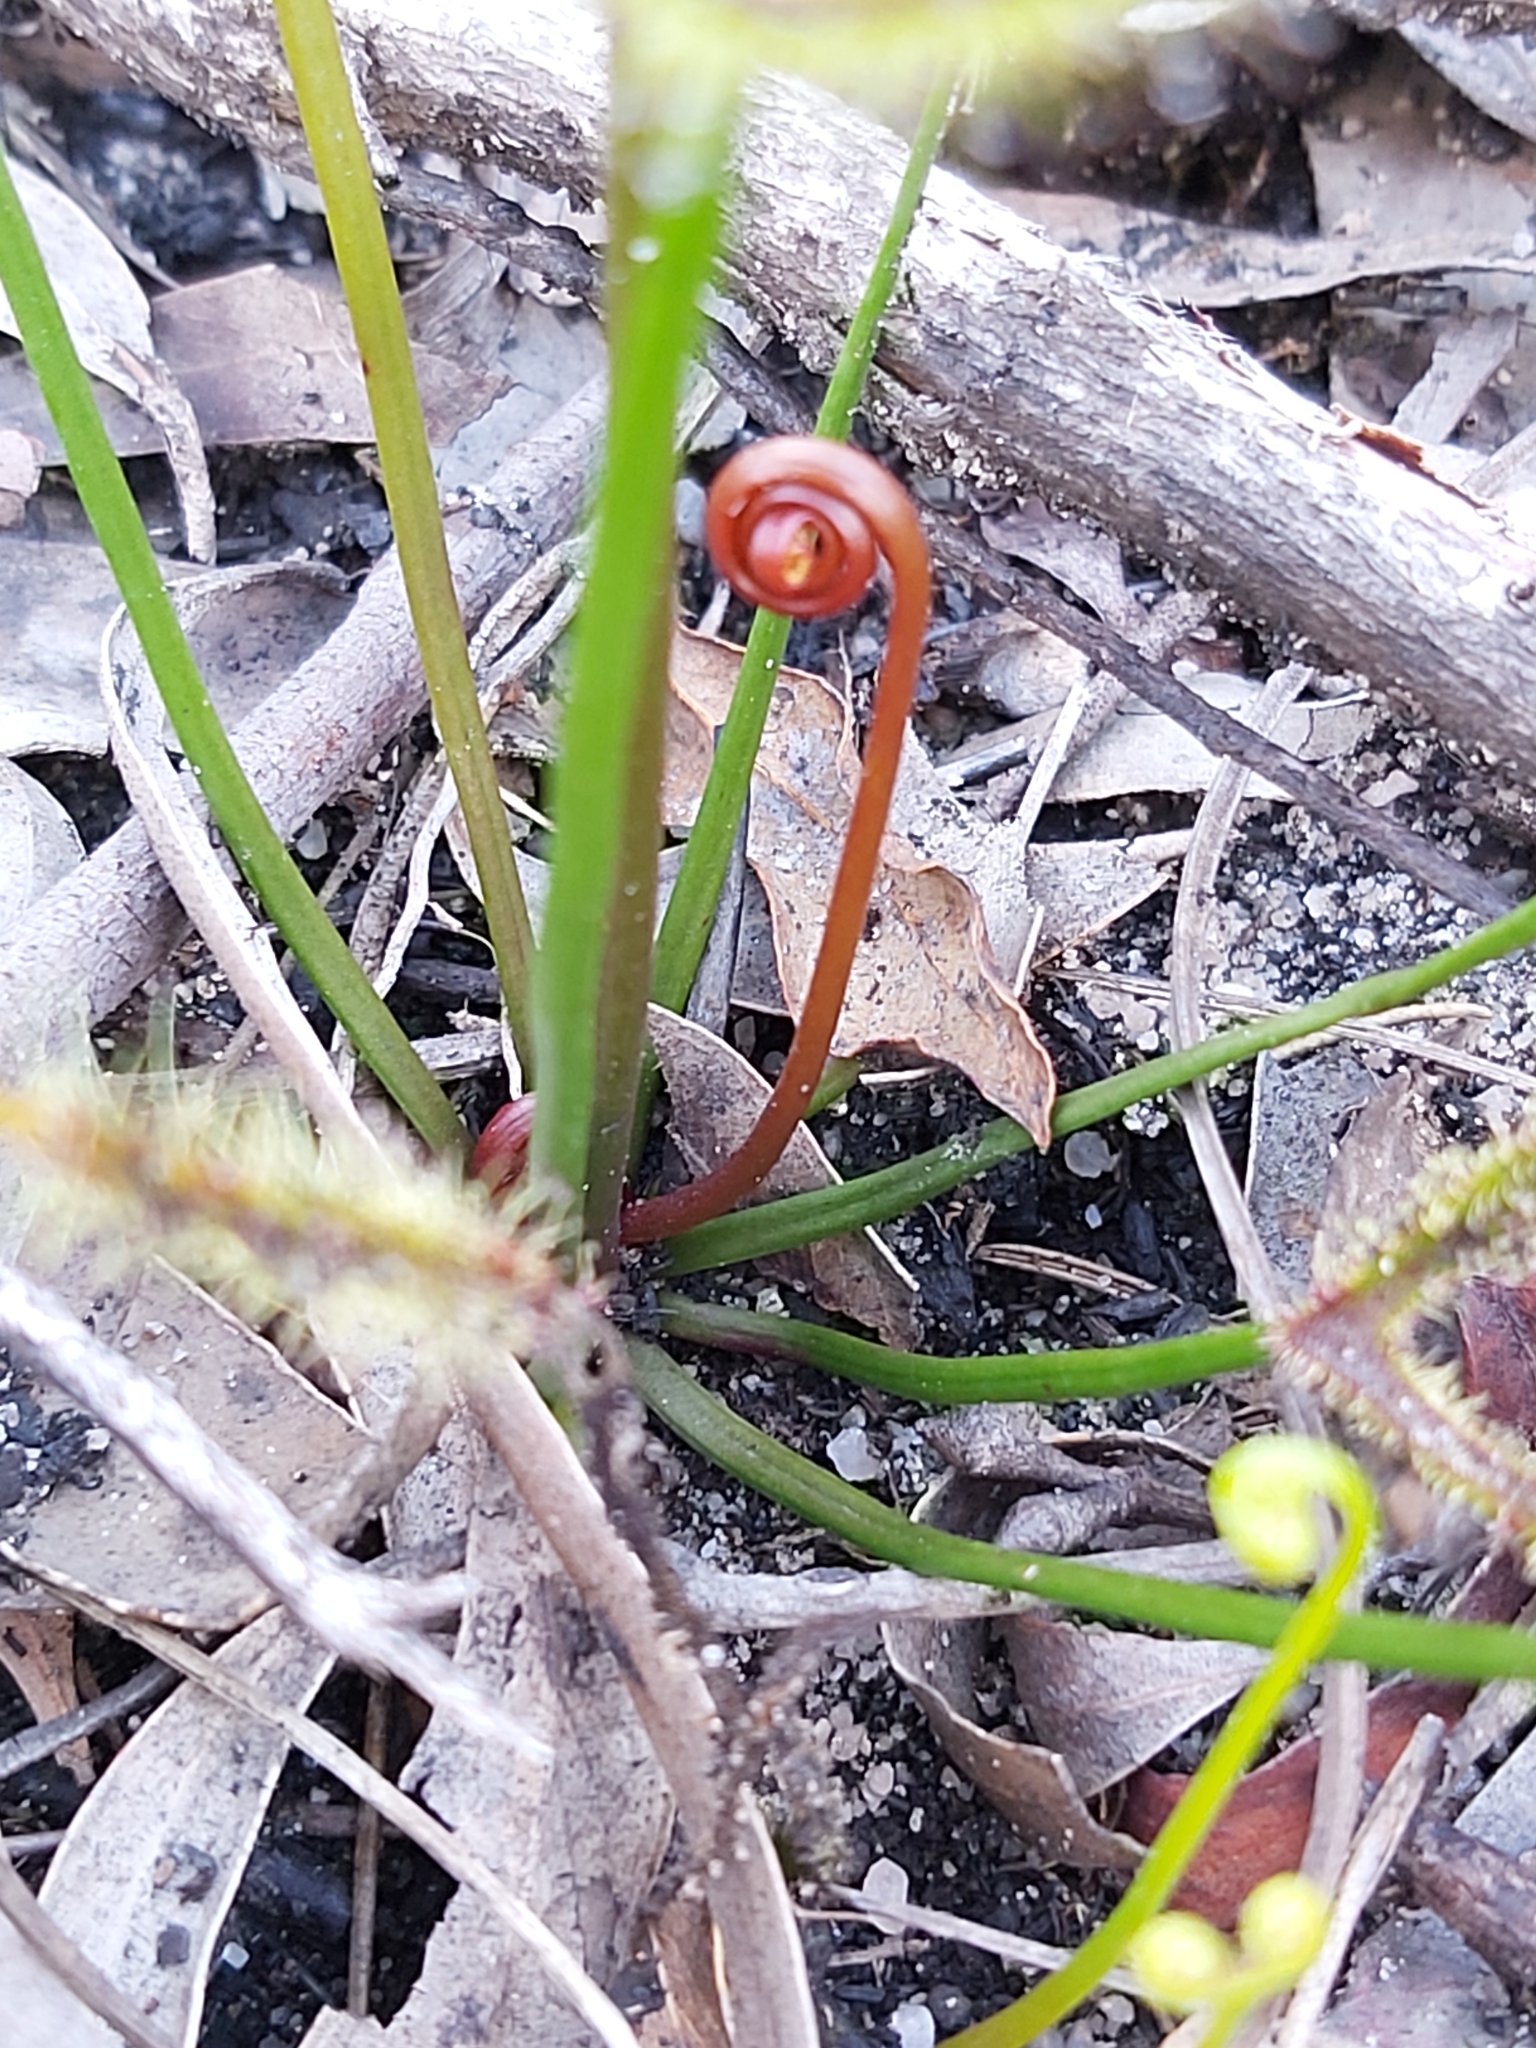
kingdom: Plantae
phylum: Tracheophyta
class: Magnoliopsida
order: Caryophyllales
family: Droseraceae
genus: Drosera
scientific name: Drosera binata
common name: Forked sundew
